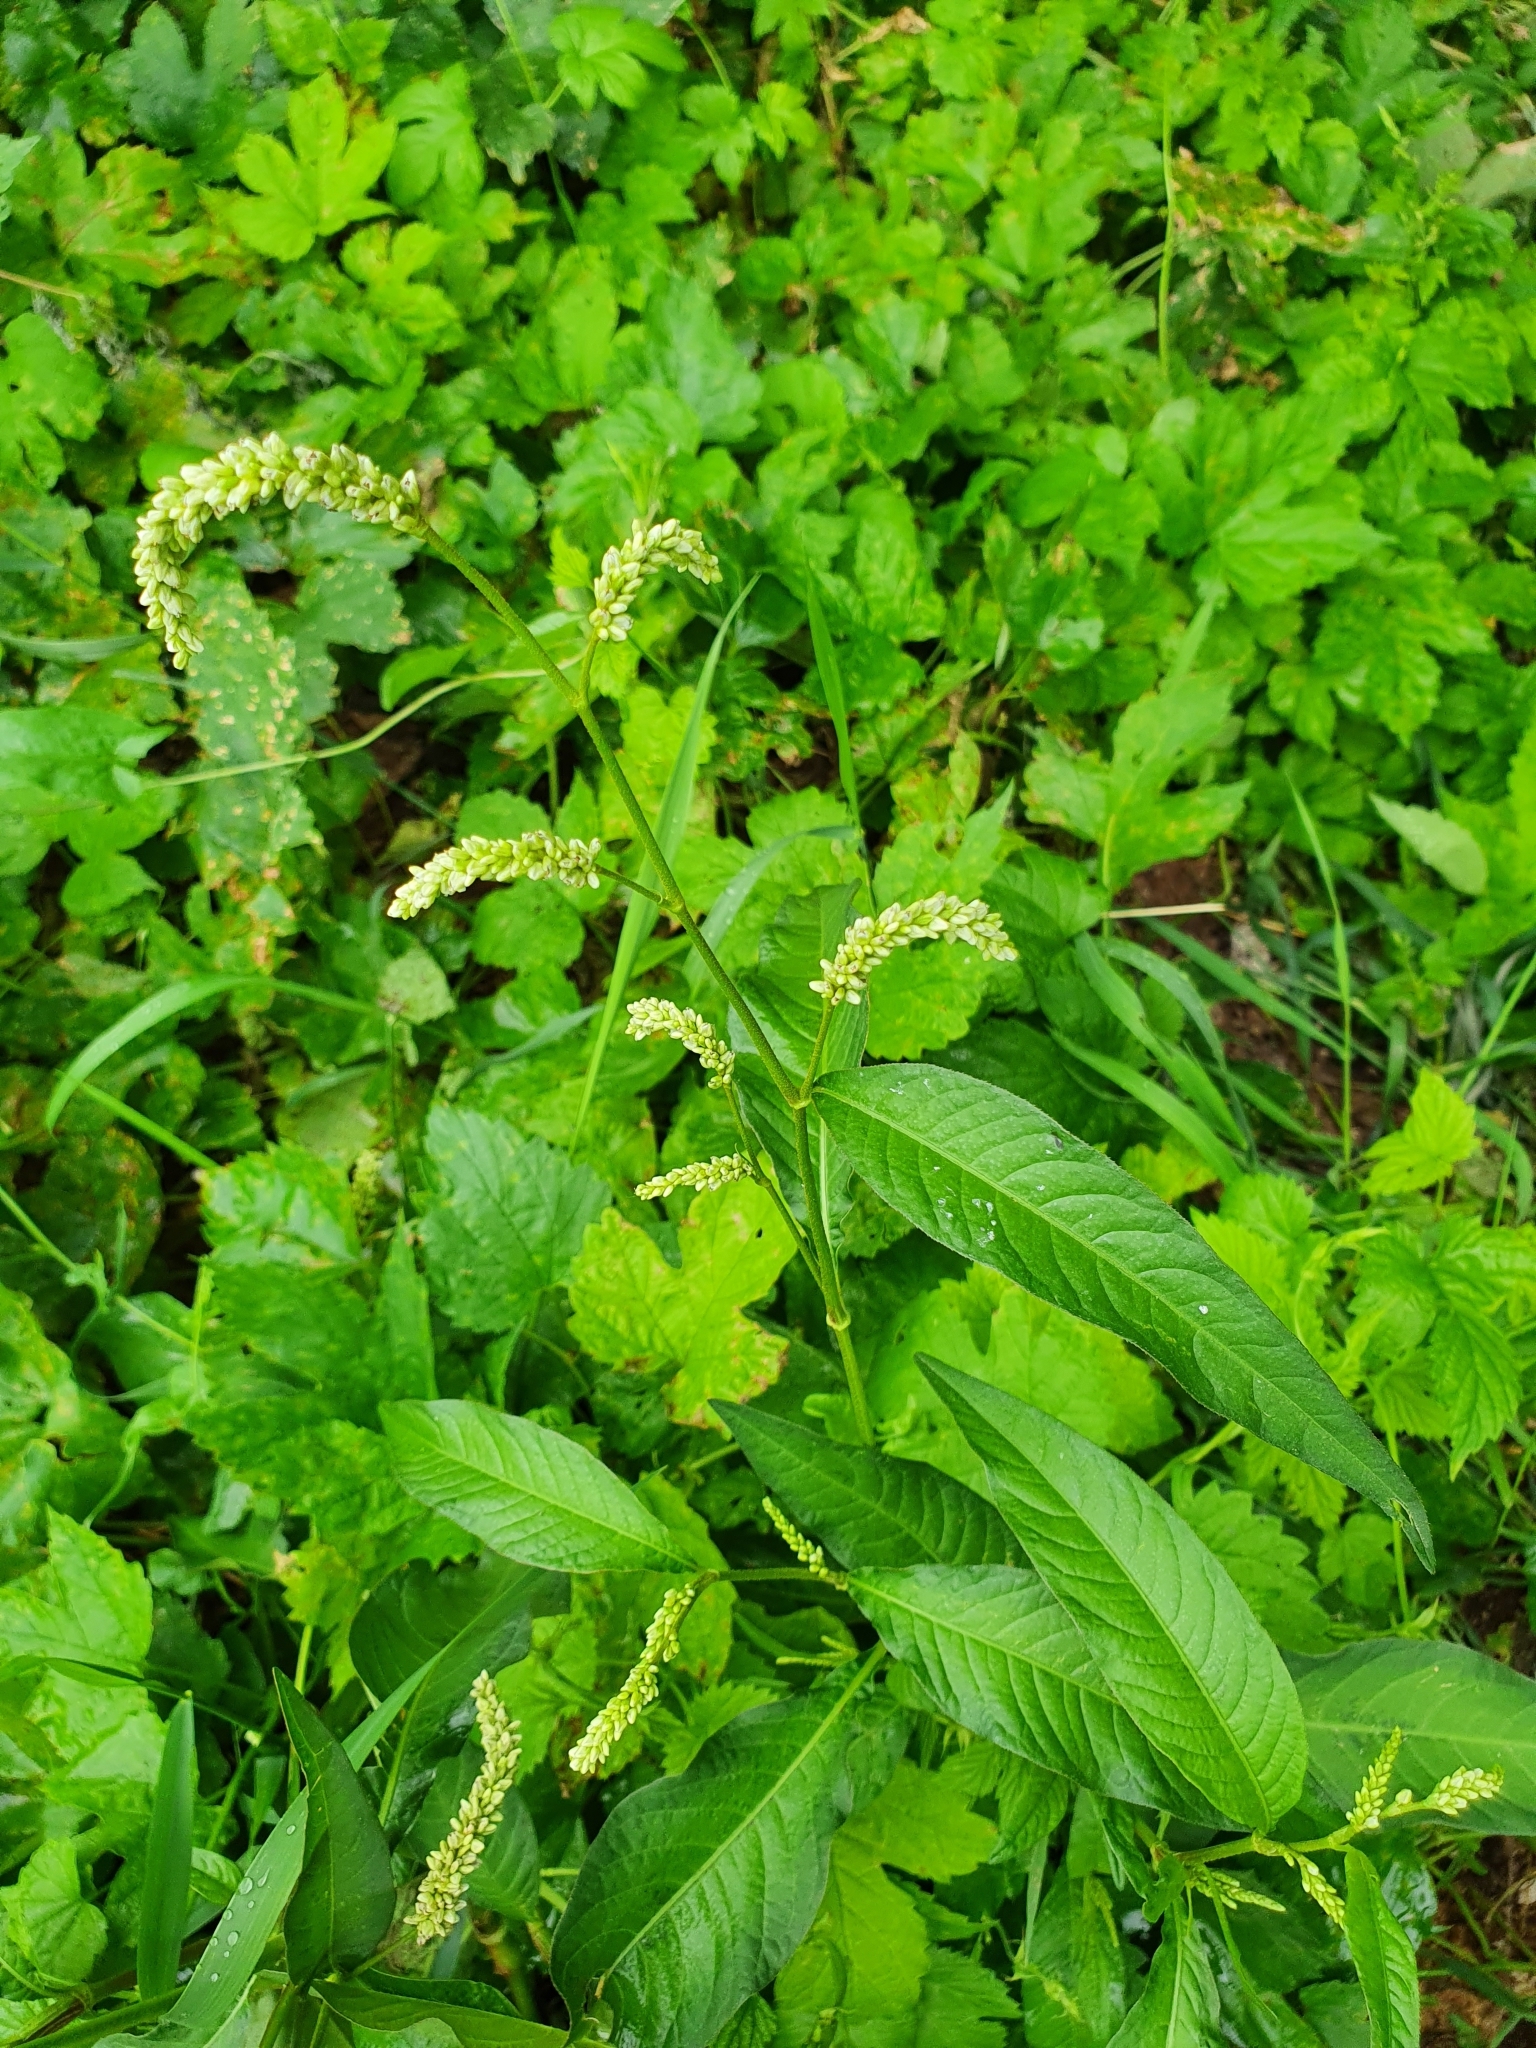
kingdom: Plantae
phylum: Tracheophyta
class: Magnoliopsida
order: Caryophyllales
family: Polygonaceae
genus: Persicaria
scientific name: Persicaria lapathifolia
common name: Curlytop knotweed
